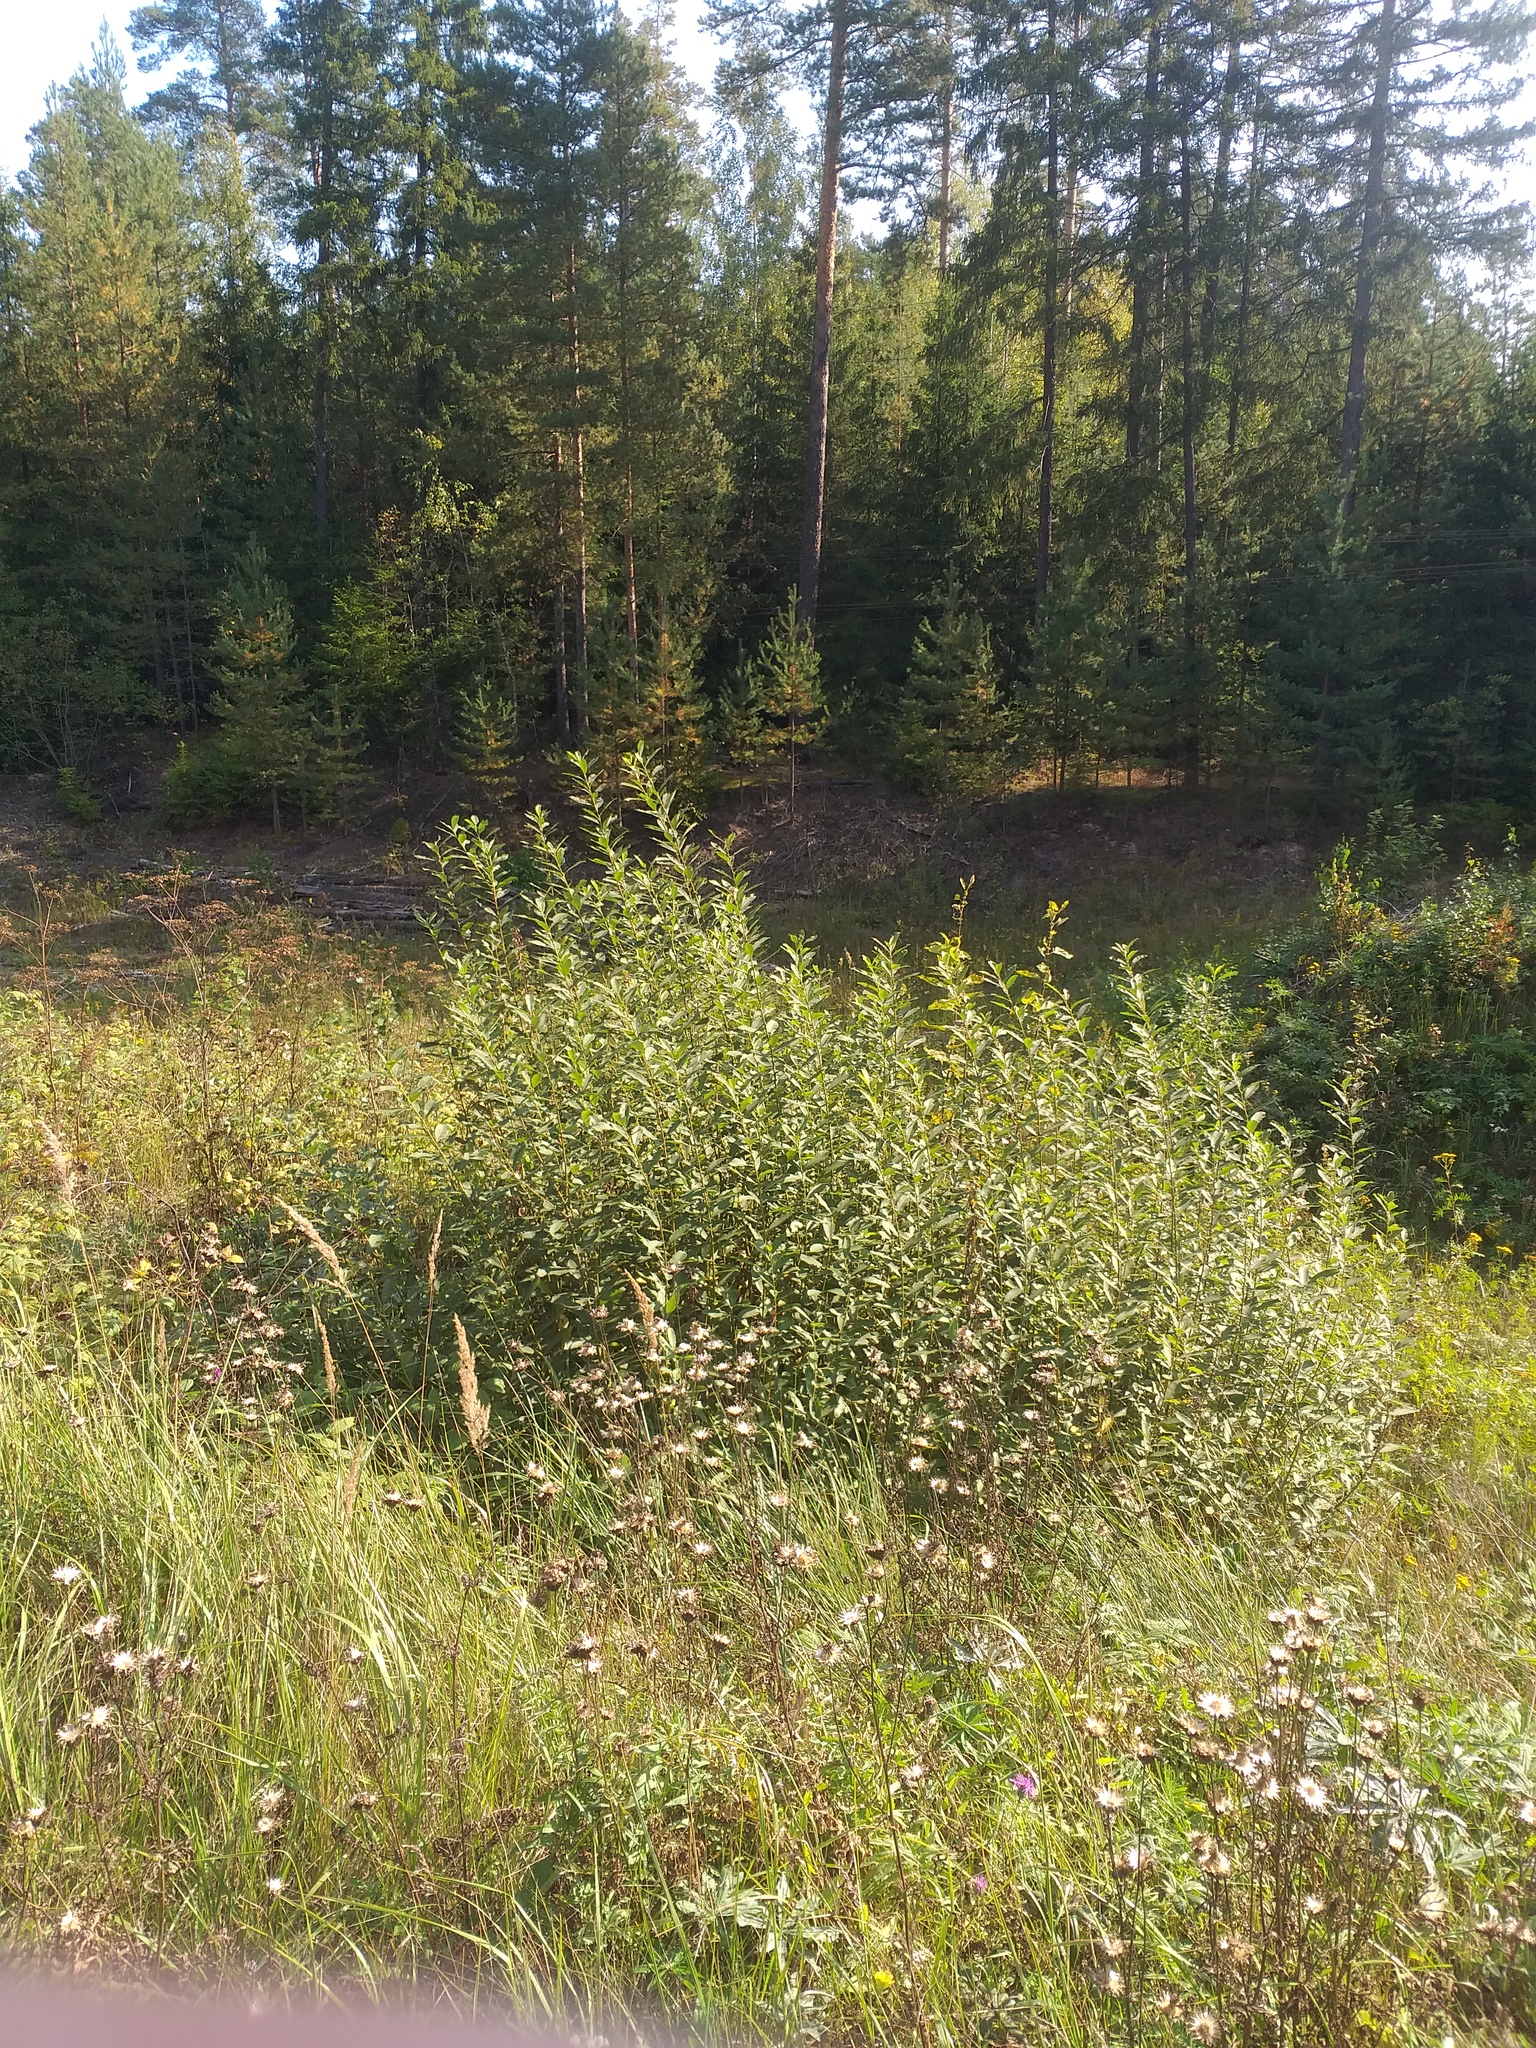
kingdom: Plantae
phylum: Tracheophyta
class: Magnoliopsida
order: Malpighiales
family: Salicaceae
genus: Salix
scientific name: Salix cinerea
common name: Common sallow
